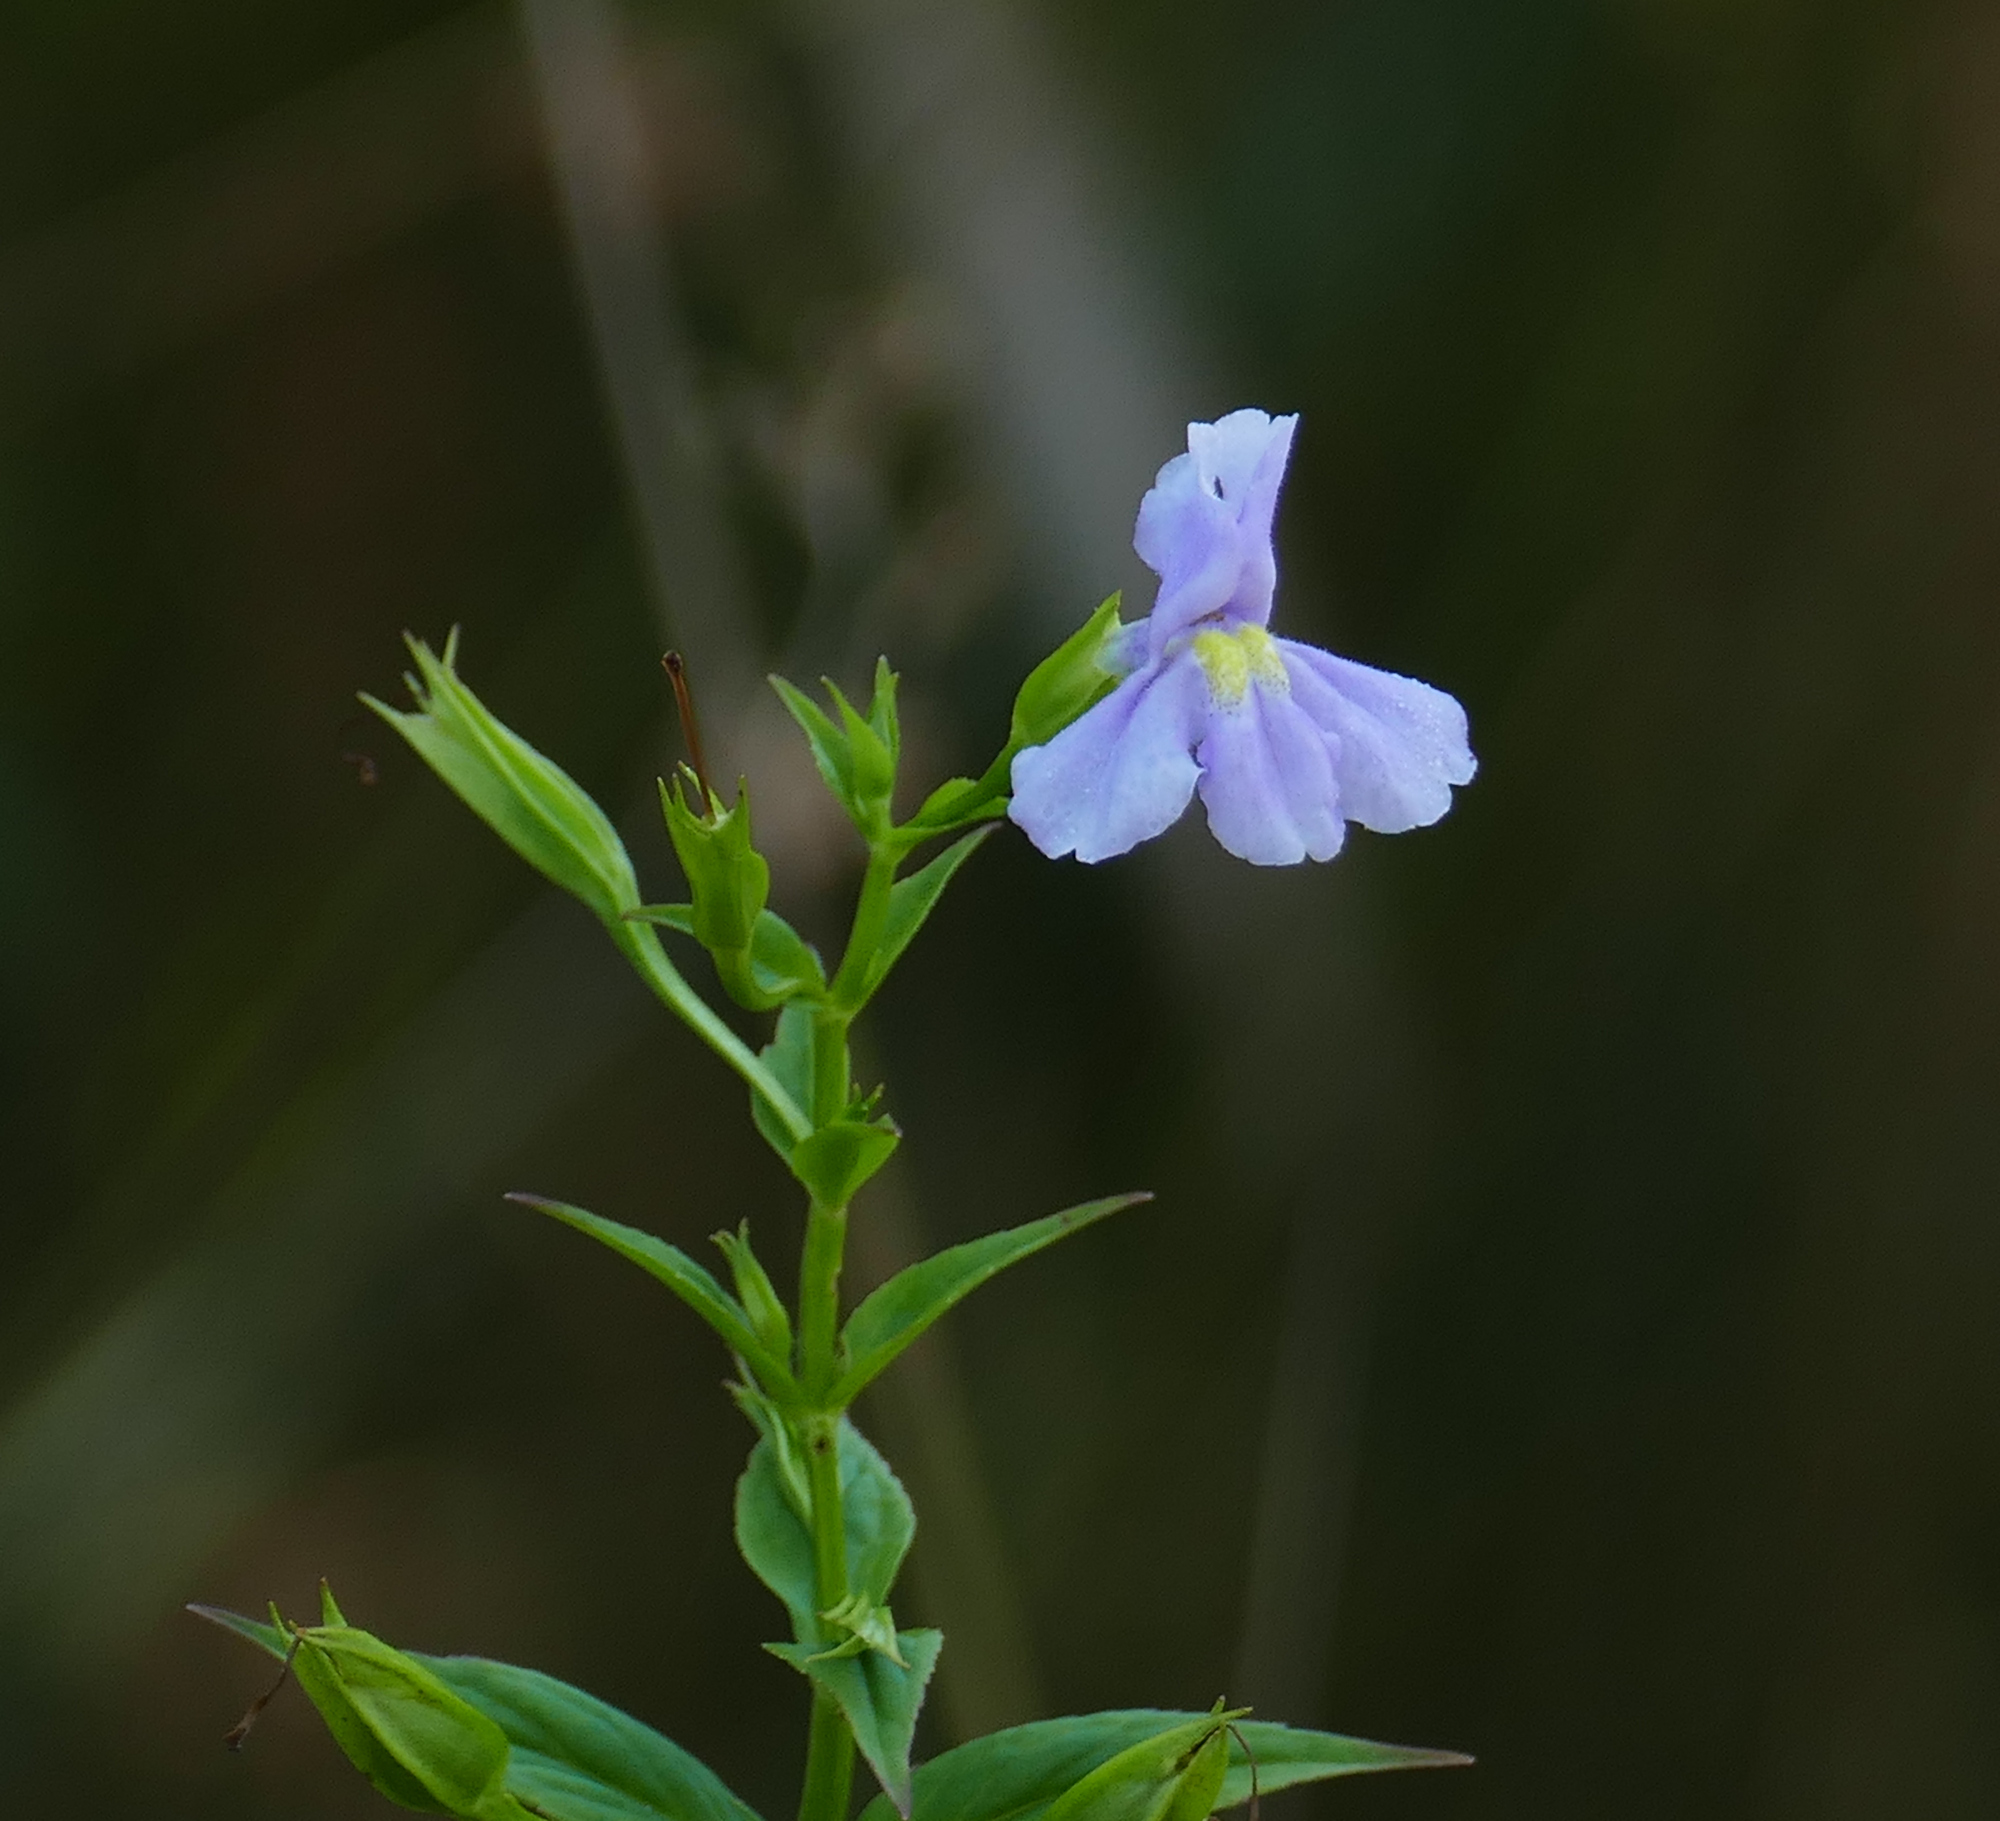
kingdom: Plantae
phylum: Tracheophyta
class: Magnoliopsida
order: Lamiales
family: Phrymaceae
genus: Mimulus
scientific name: Mimulus ringens
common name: Allegheny monkeyflower
